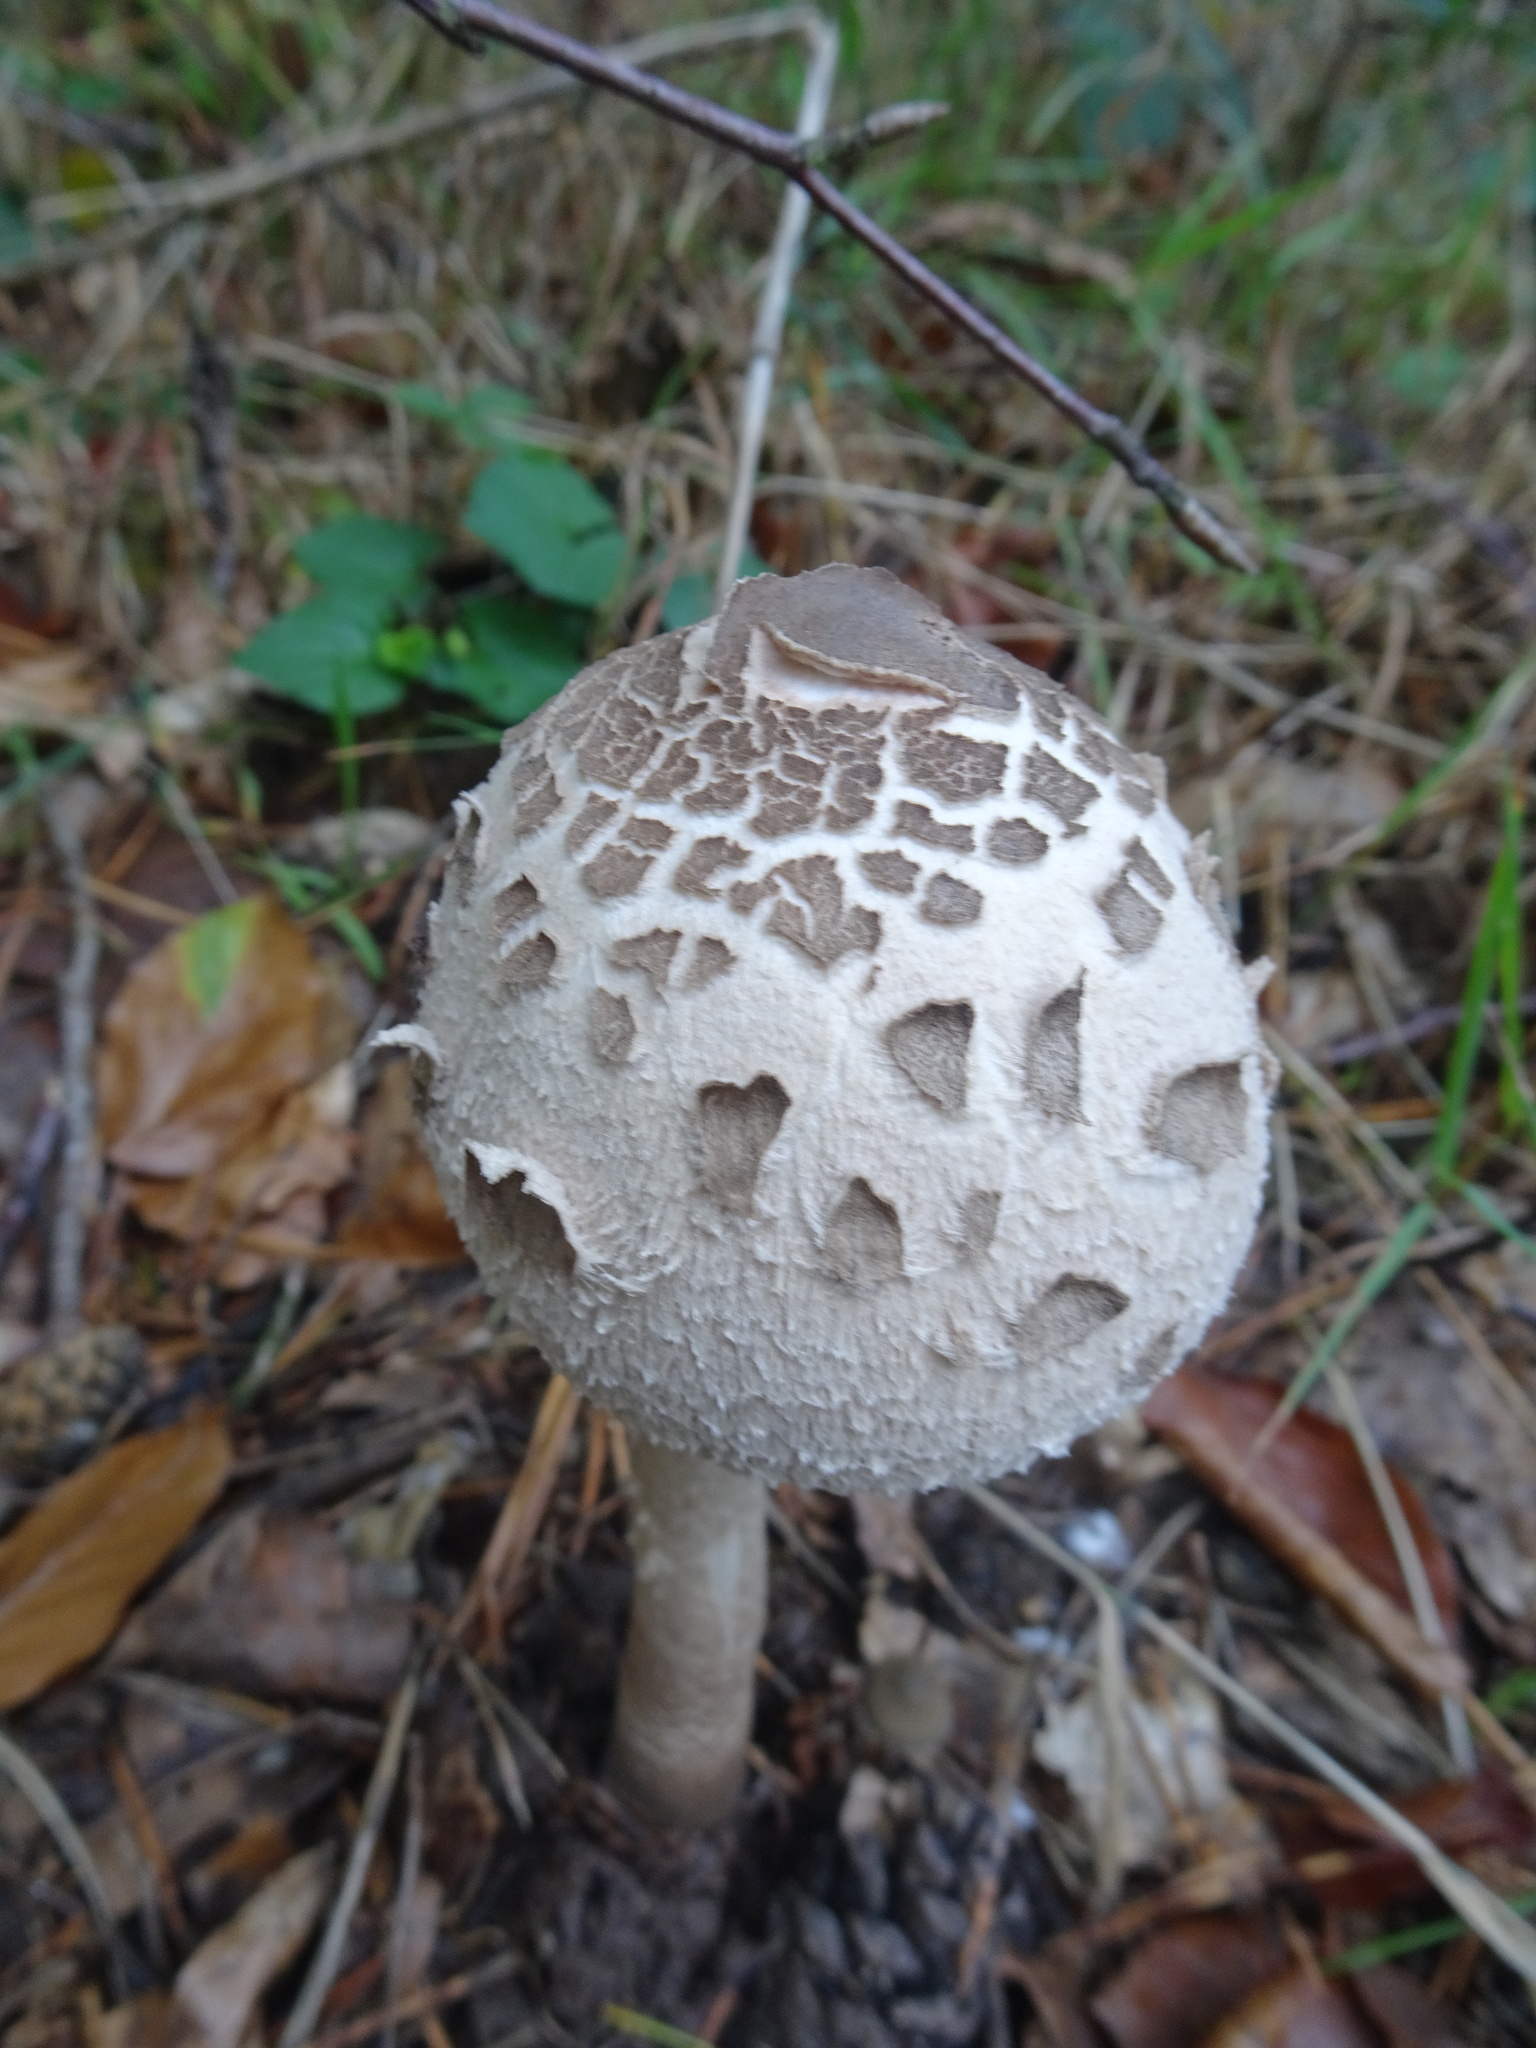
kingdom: Fungi
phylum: Basidiomycota
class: Agaricomycetes
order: Agaricales
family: Agaricaceae
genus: Macrolepiota
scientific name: Macrolepiota procera
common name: Parasol
